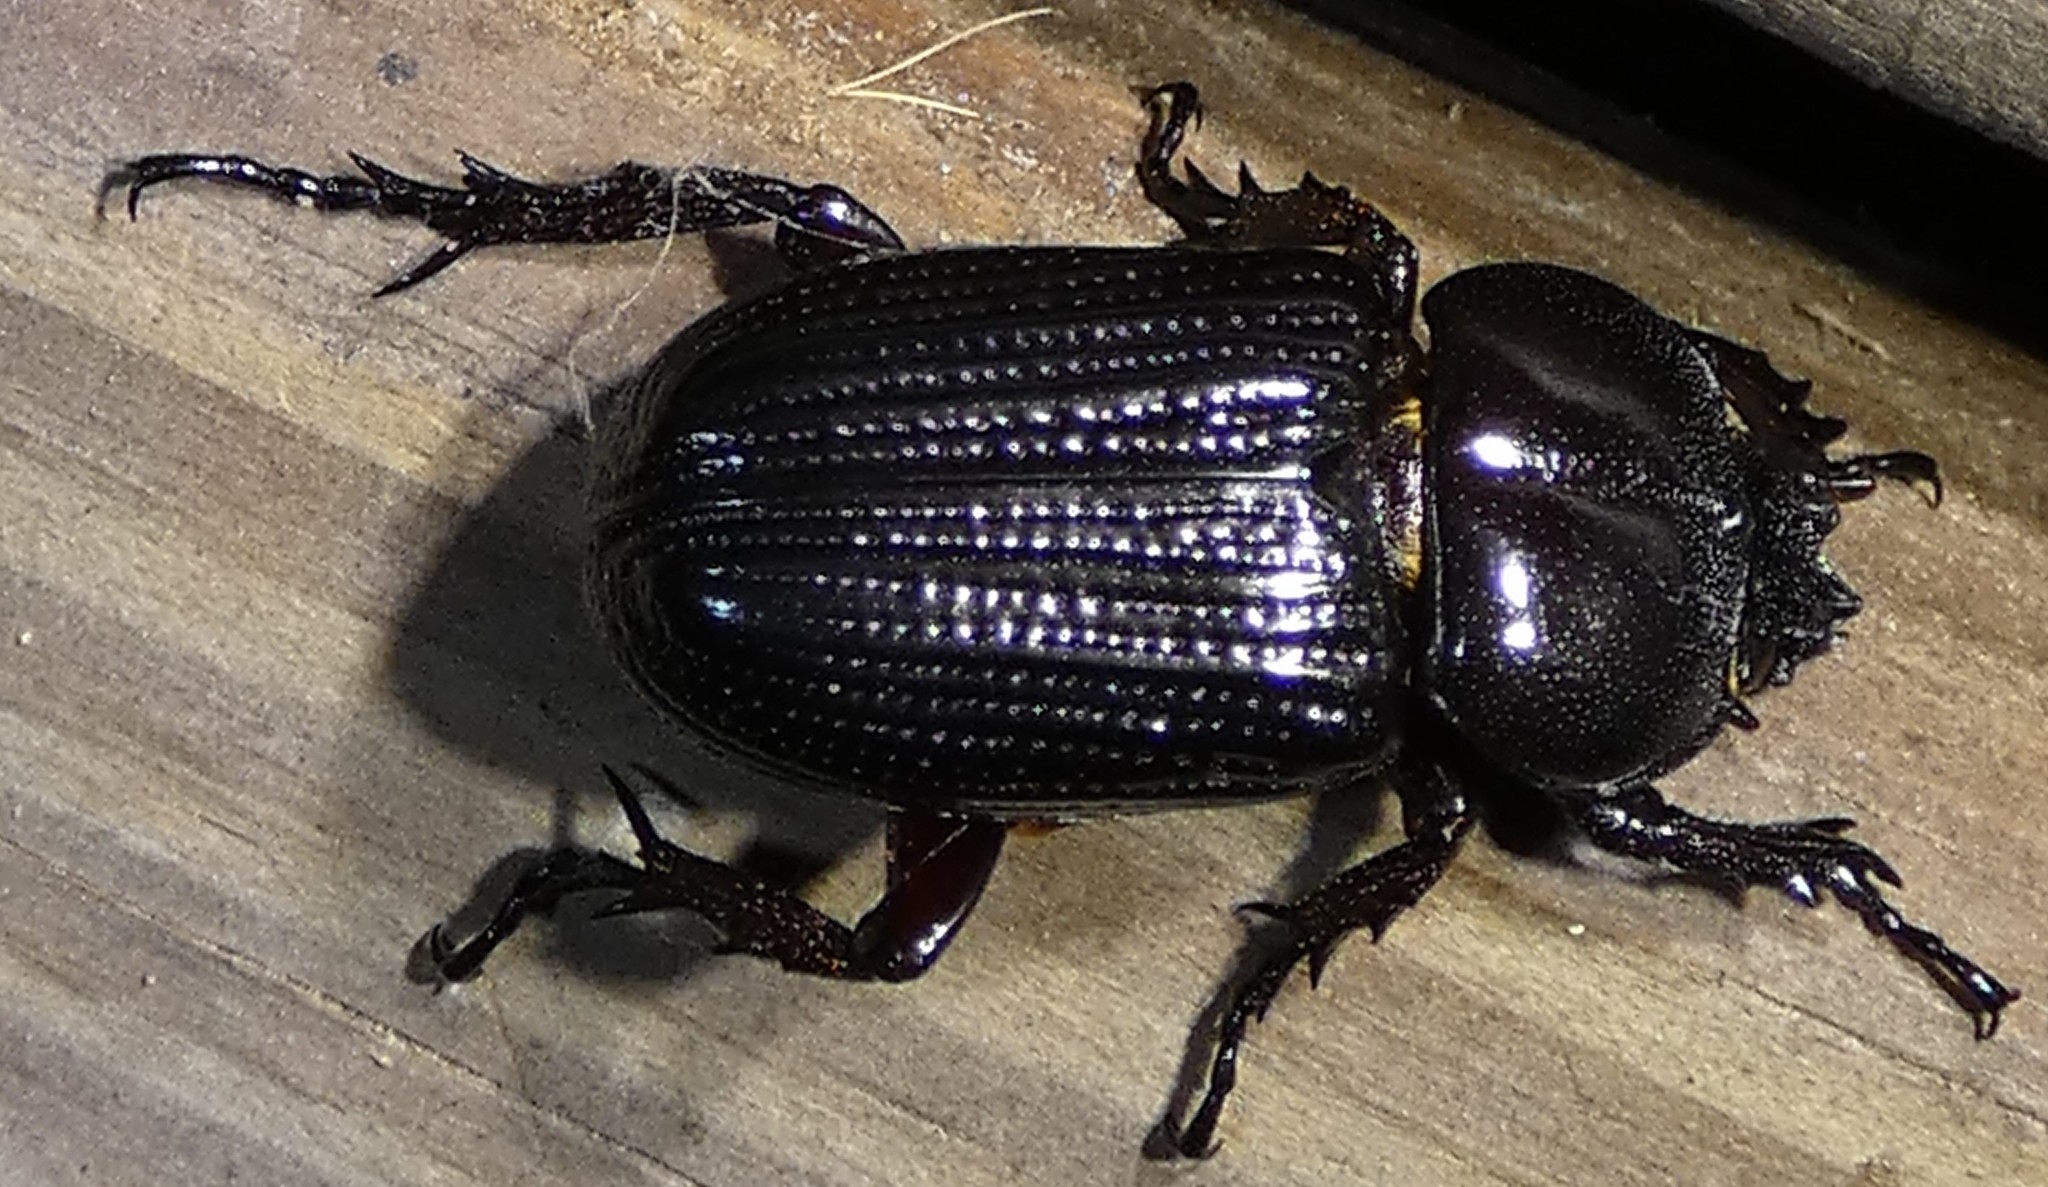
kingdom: Animalia
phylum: Arthropoda
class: Insecta
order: Coleoptera
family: Scarabaeidae
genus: Phileurus
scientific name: Phileurus valgus
